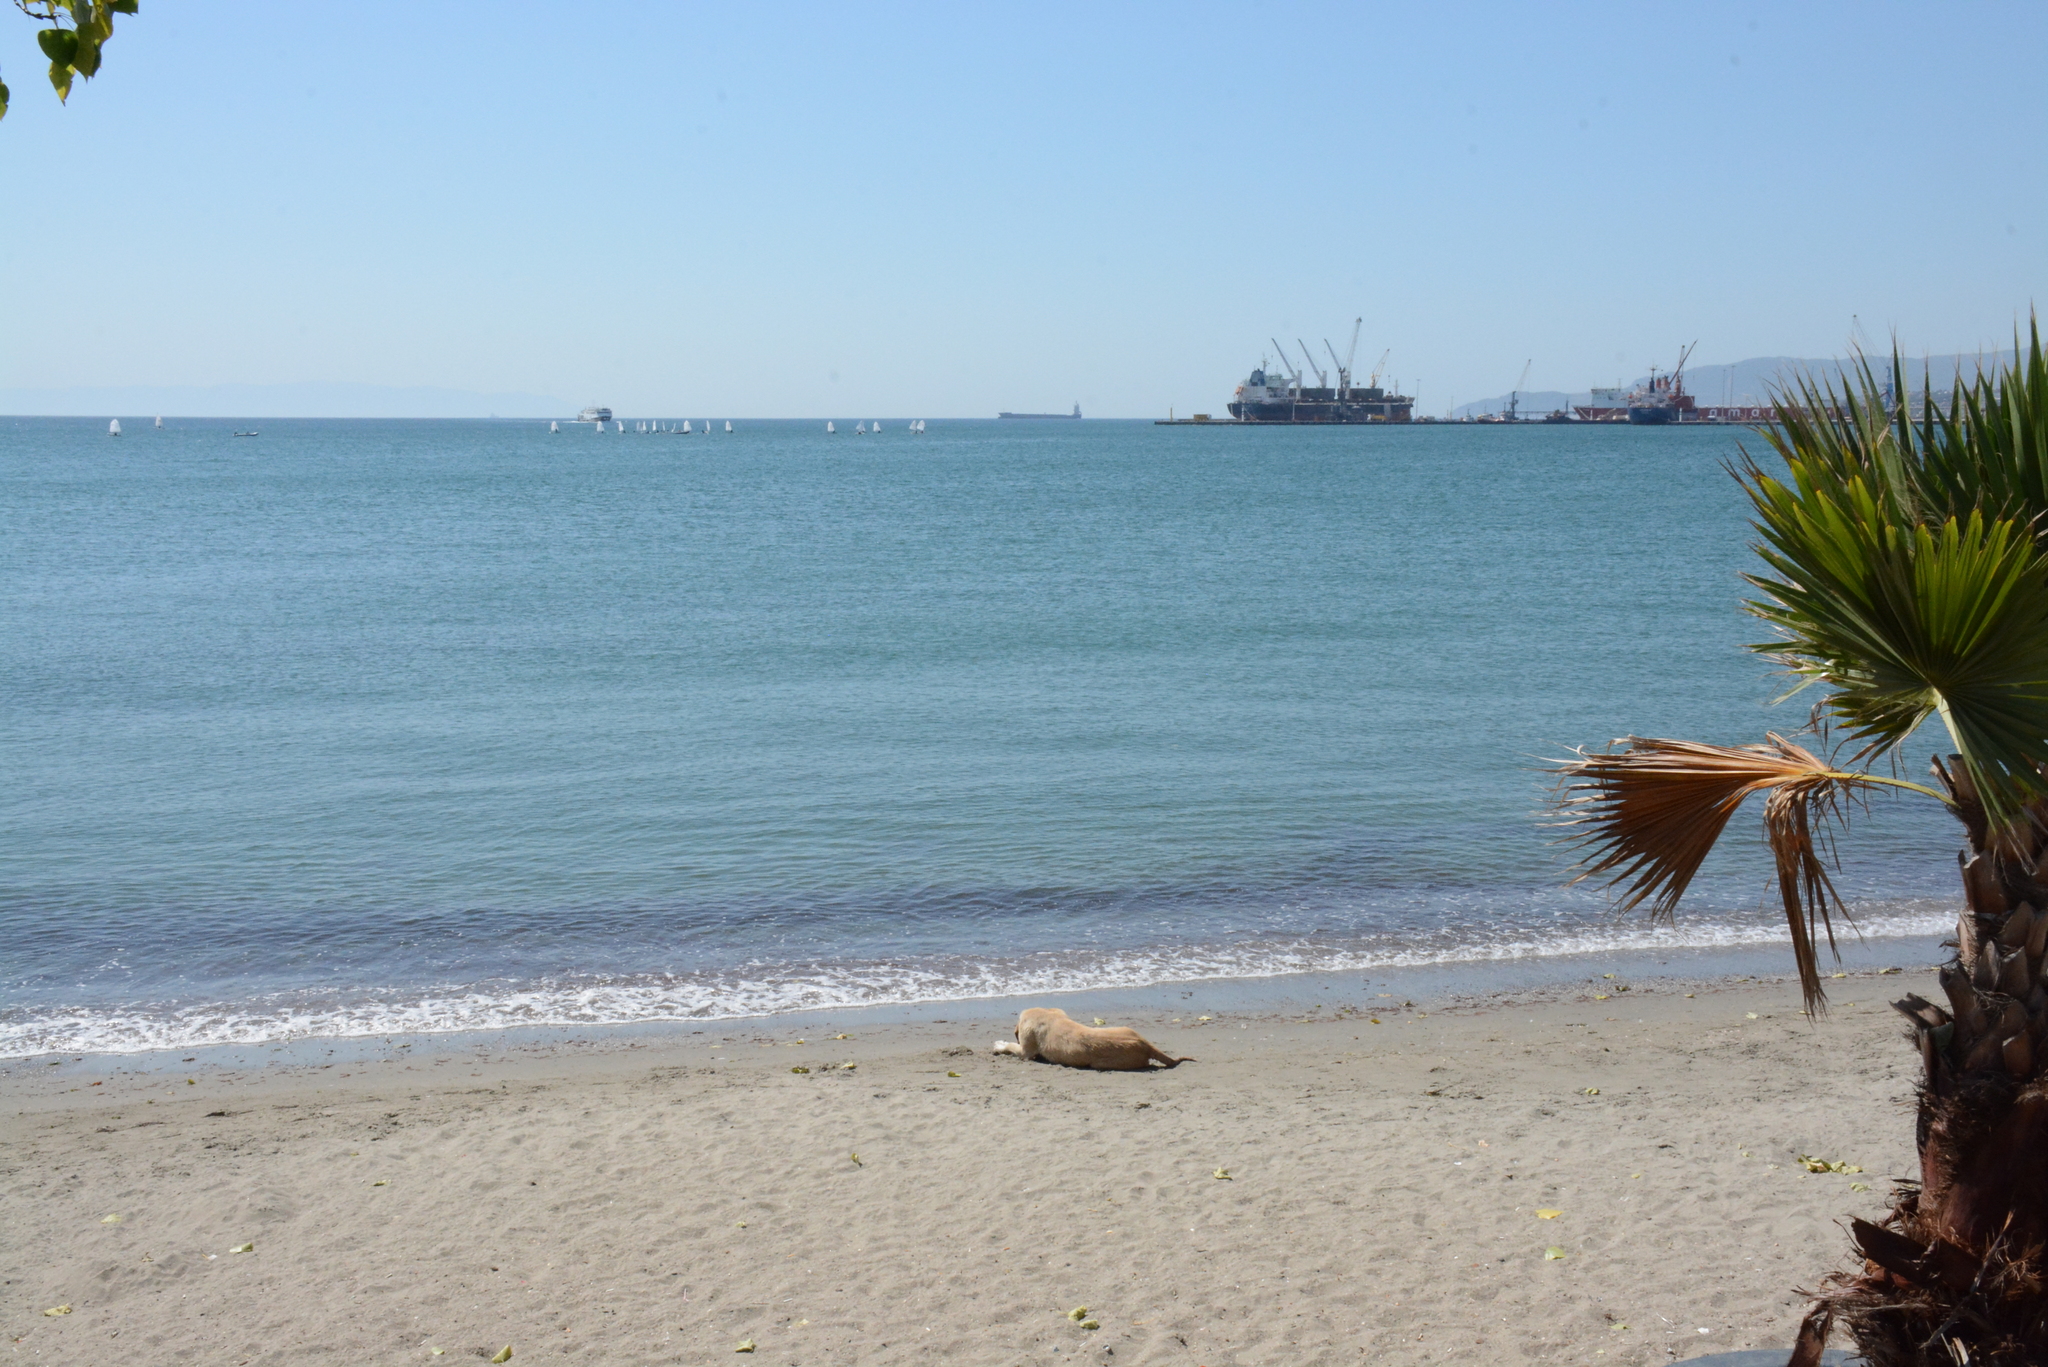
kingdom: Animalia
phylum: Chordata
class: Mammalia
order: Carnivora
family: Canidae
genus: Canis
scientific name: Canis lupus
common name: Gray wolf
